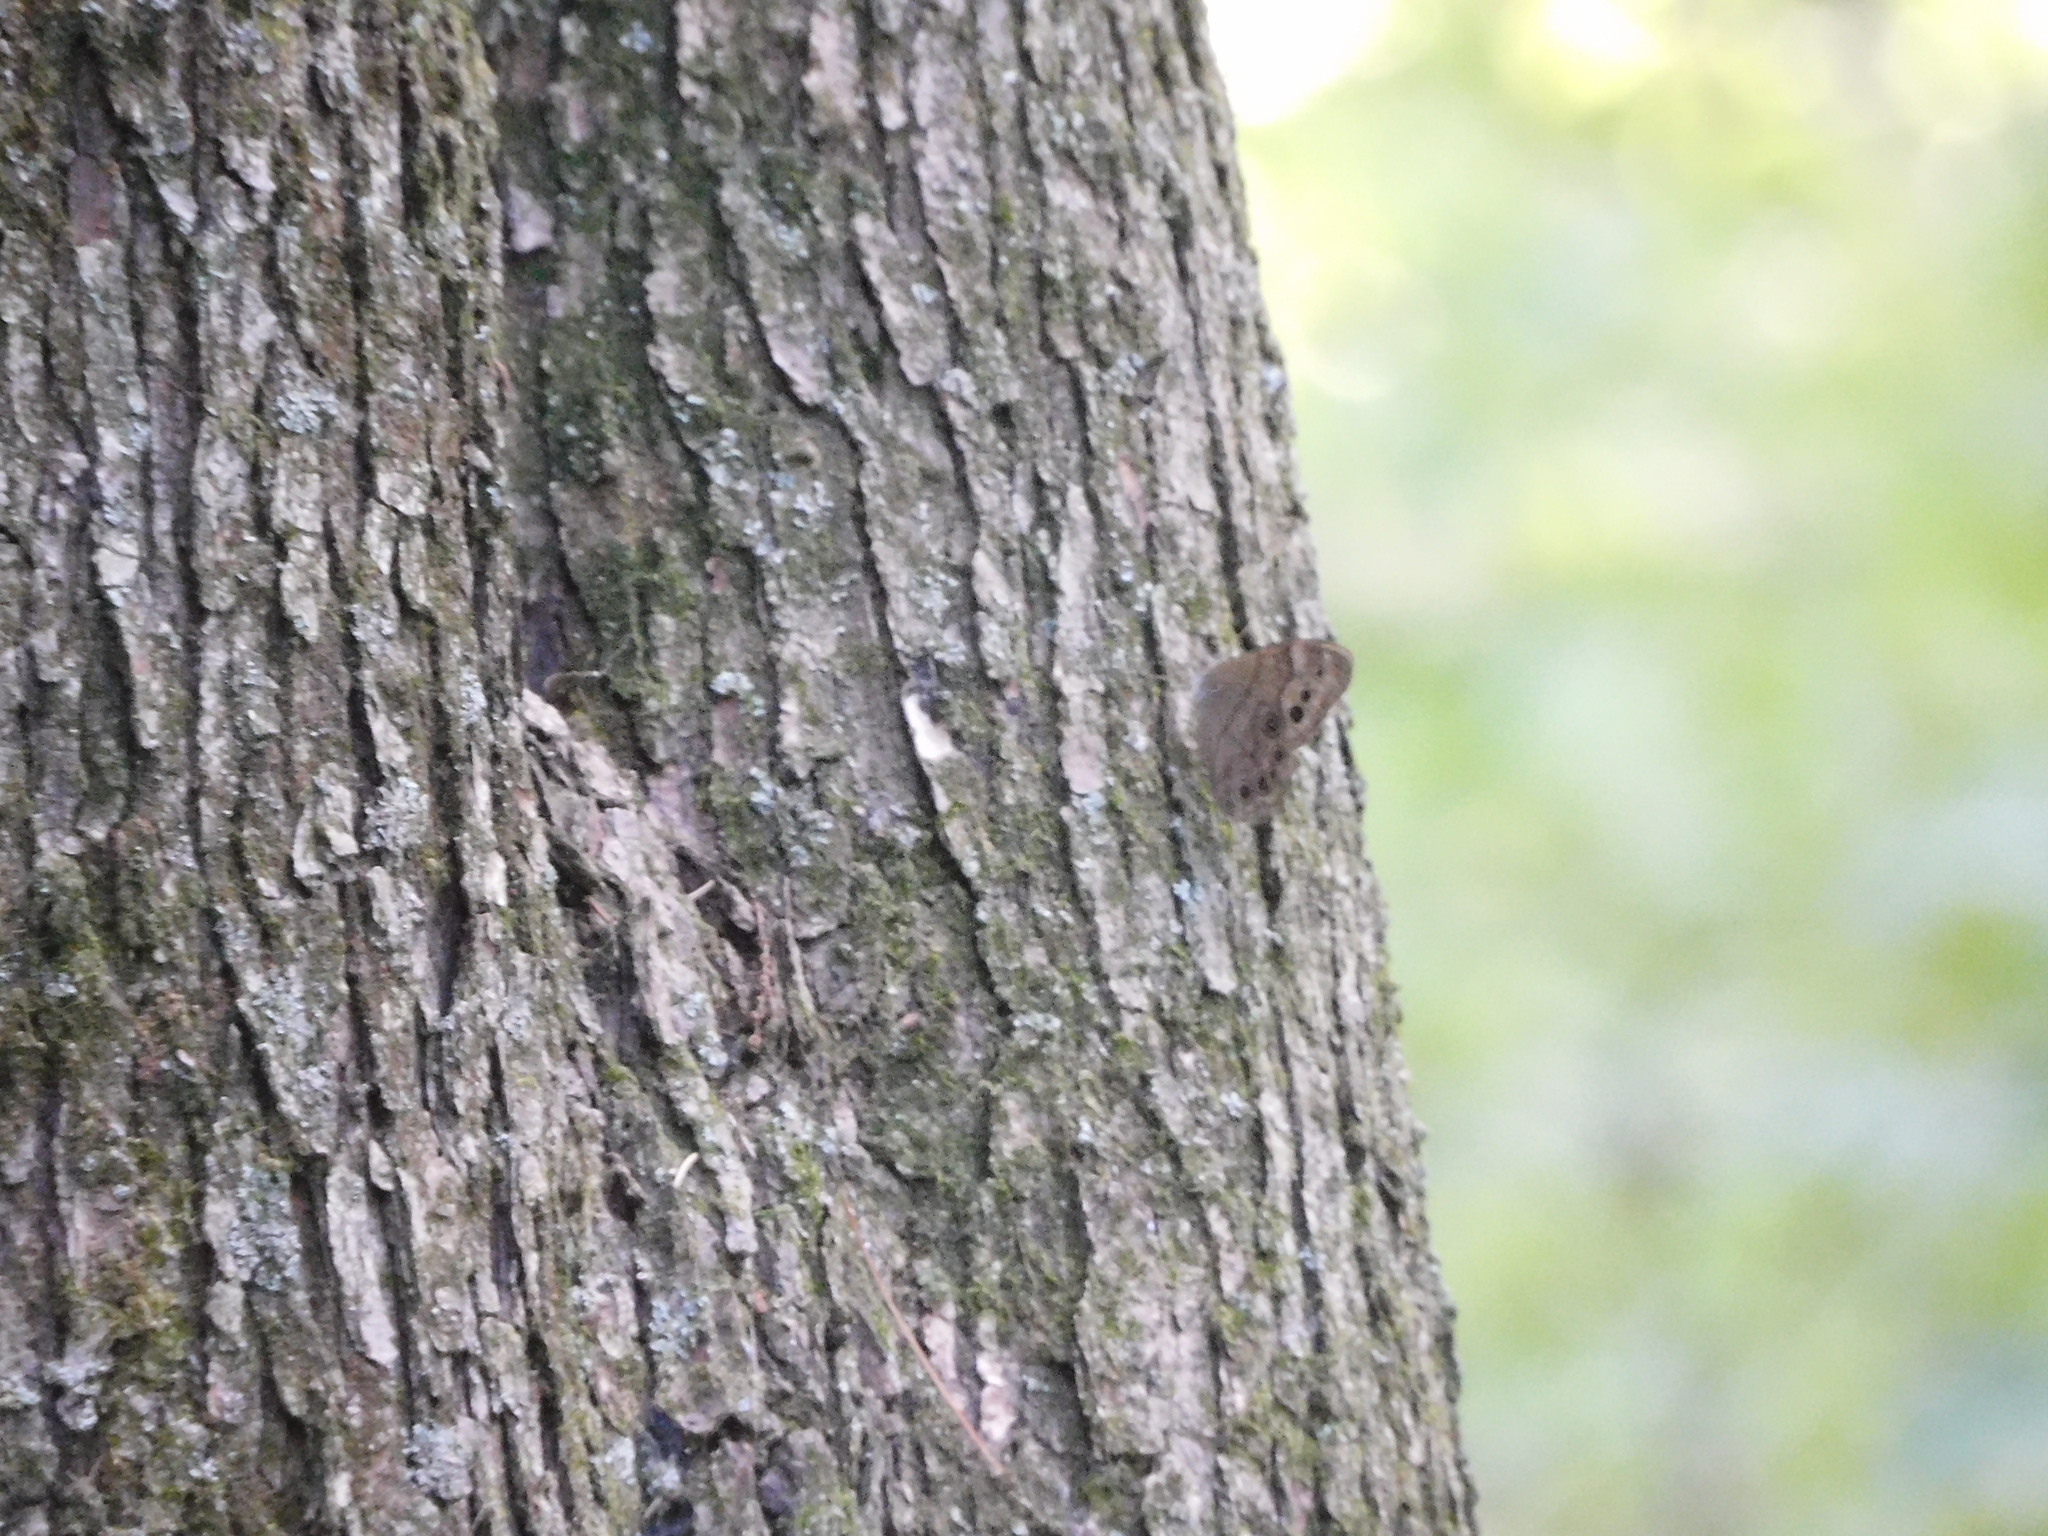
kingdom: Animalia
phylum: Arthropoda
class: Insecta
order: Lepidoptera
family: Nymphalidae
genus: Lethe
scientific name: Lethe anthedon
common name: Northern pearly-eye
